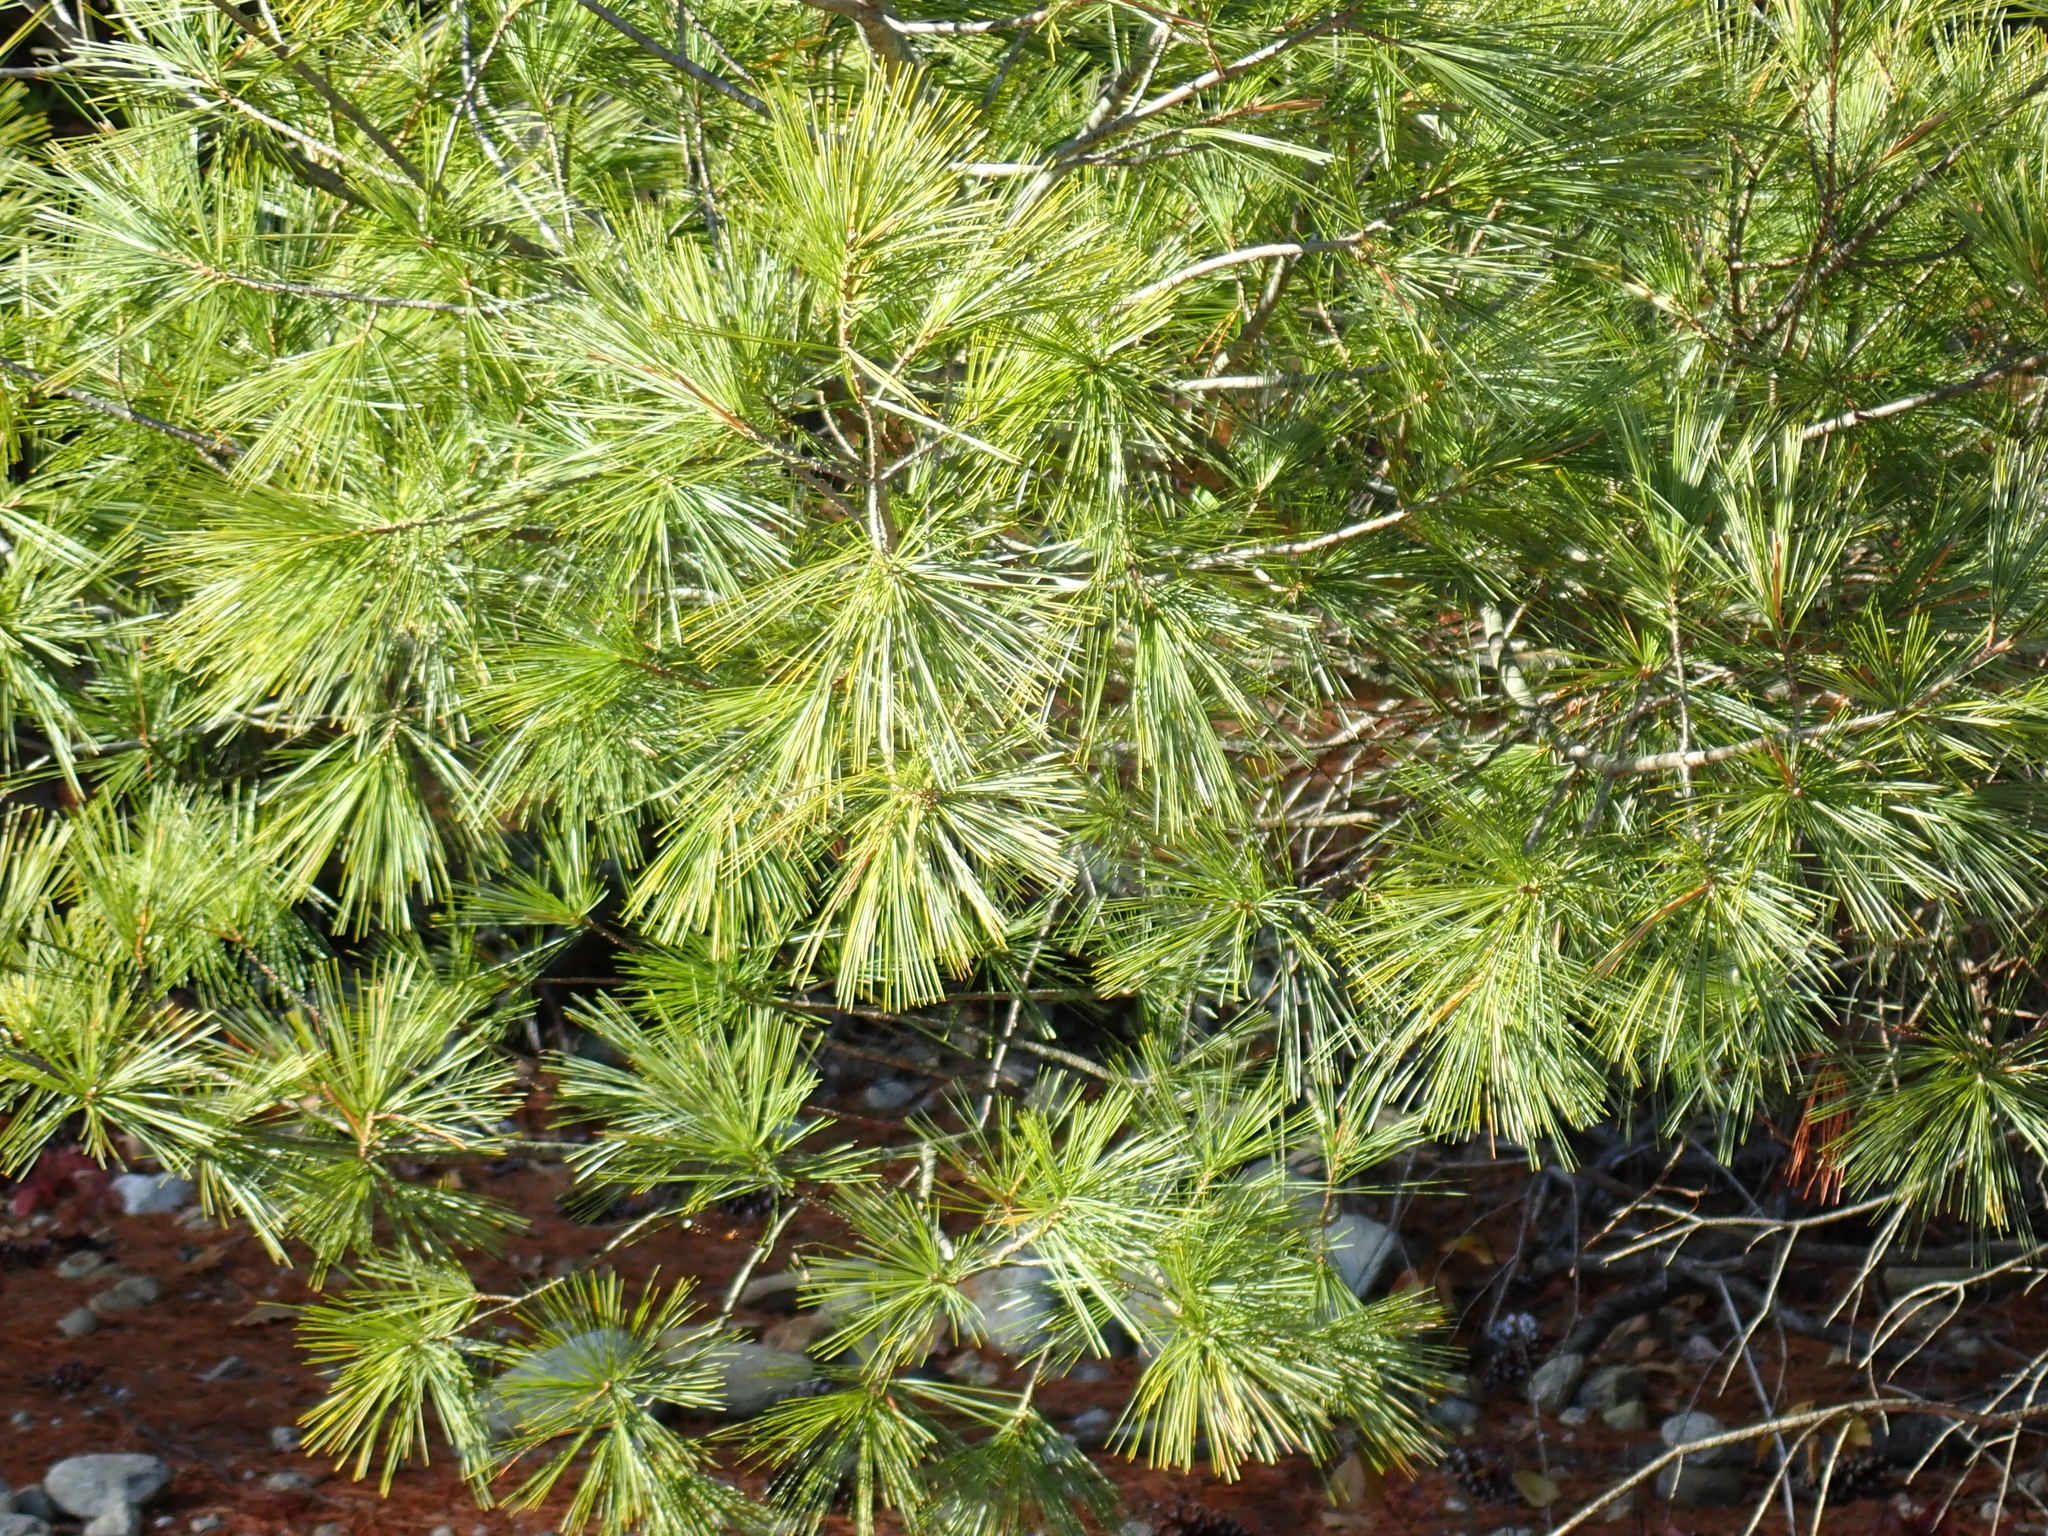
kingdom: Plantae
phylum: Tracheophyta
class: Pinopsida
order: Pinales
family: Pinaceae
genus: Pinus
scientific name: Pinus strobus
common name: Weymouth pine
